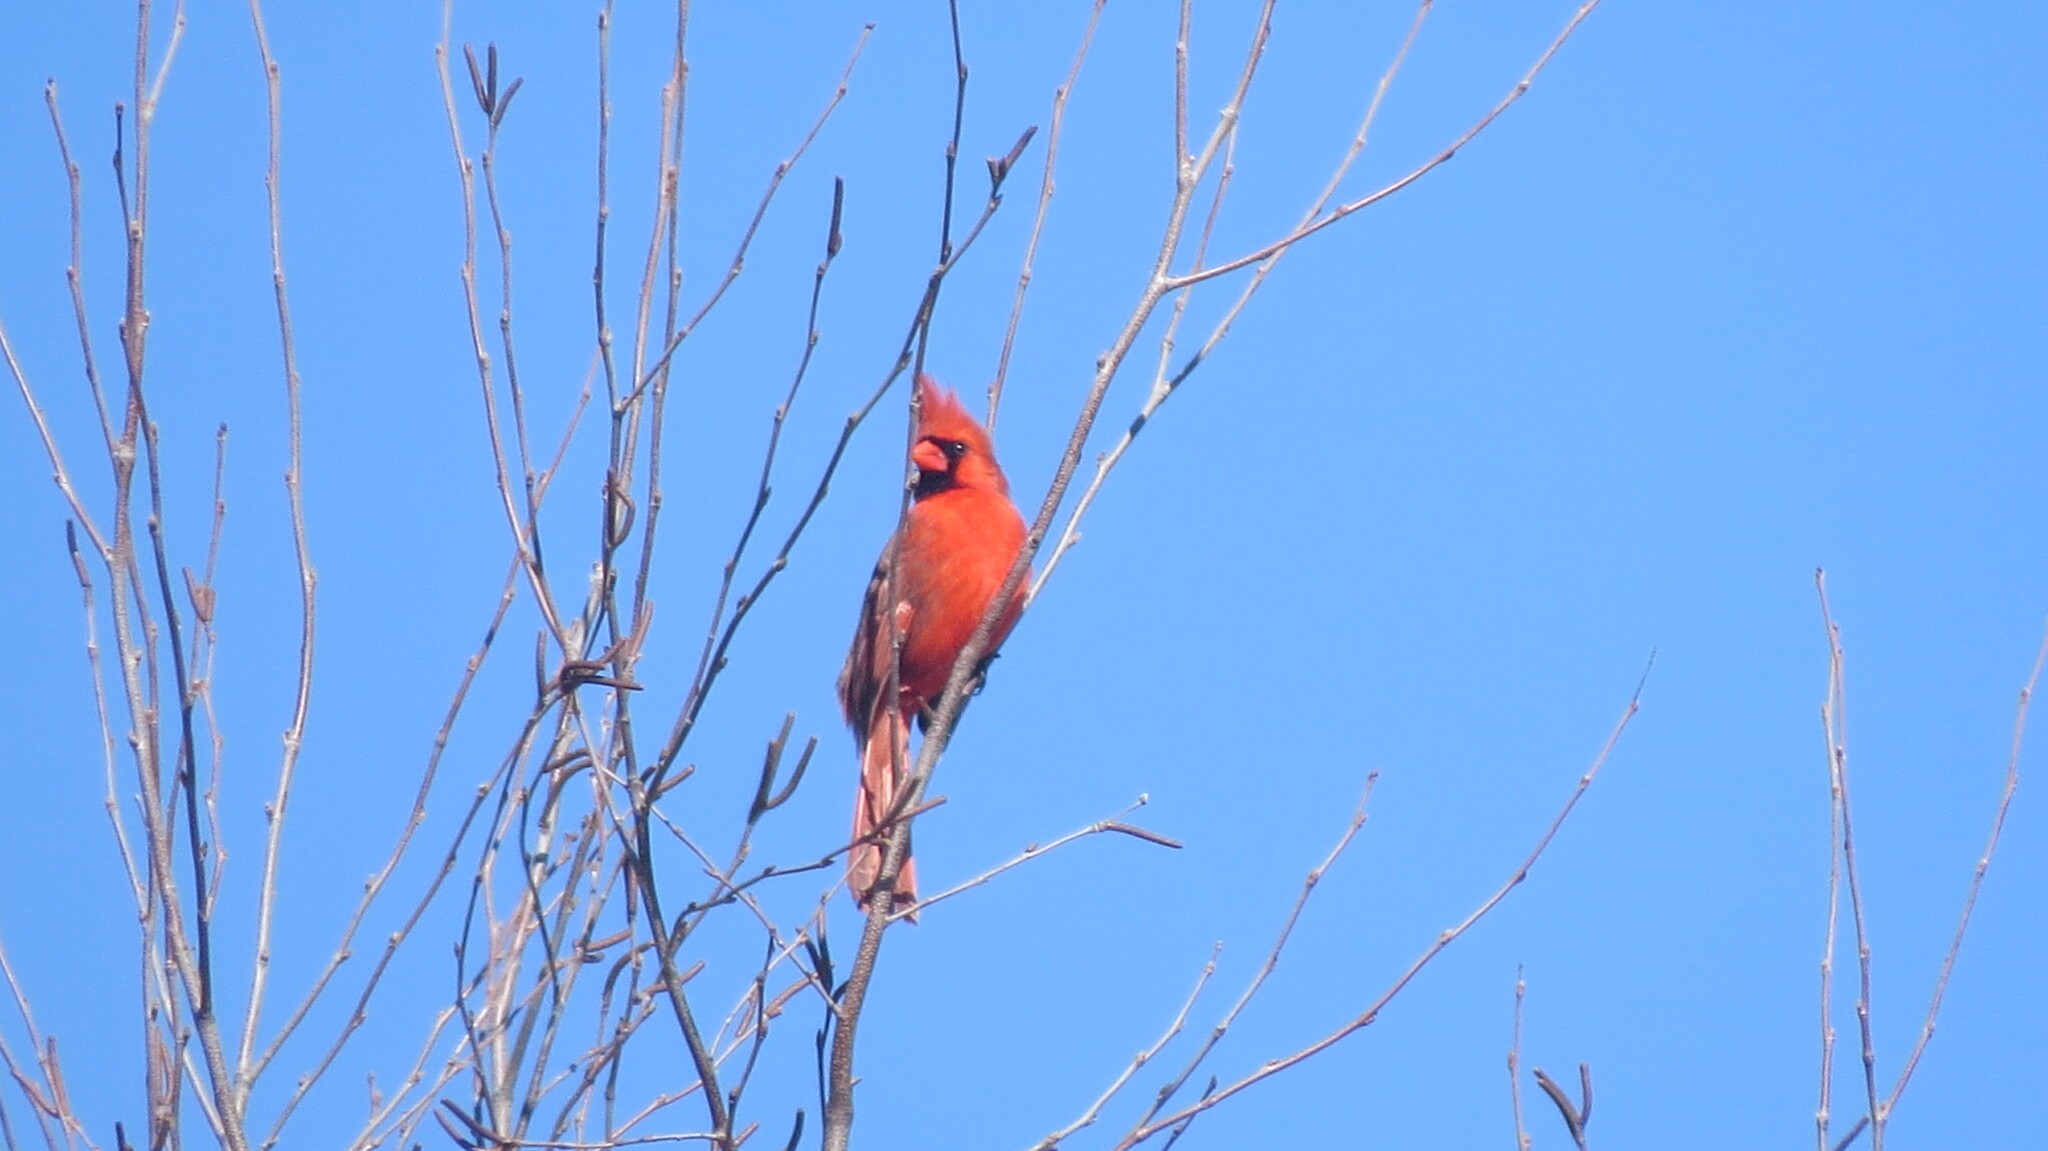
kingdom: Animalia
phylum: Chordata
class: Aves
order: Passeriformes
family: Cardinalidae
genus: Cardinalis
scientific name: Cardinalis cardinalis
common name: Northern cardinal
